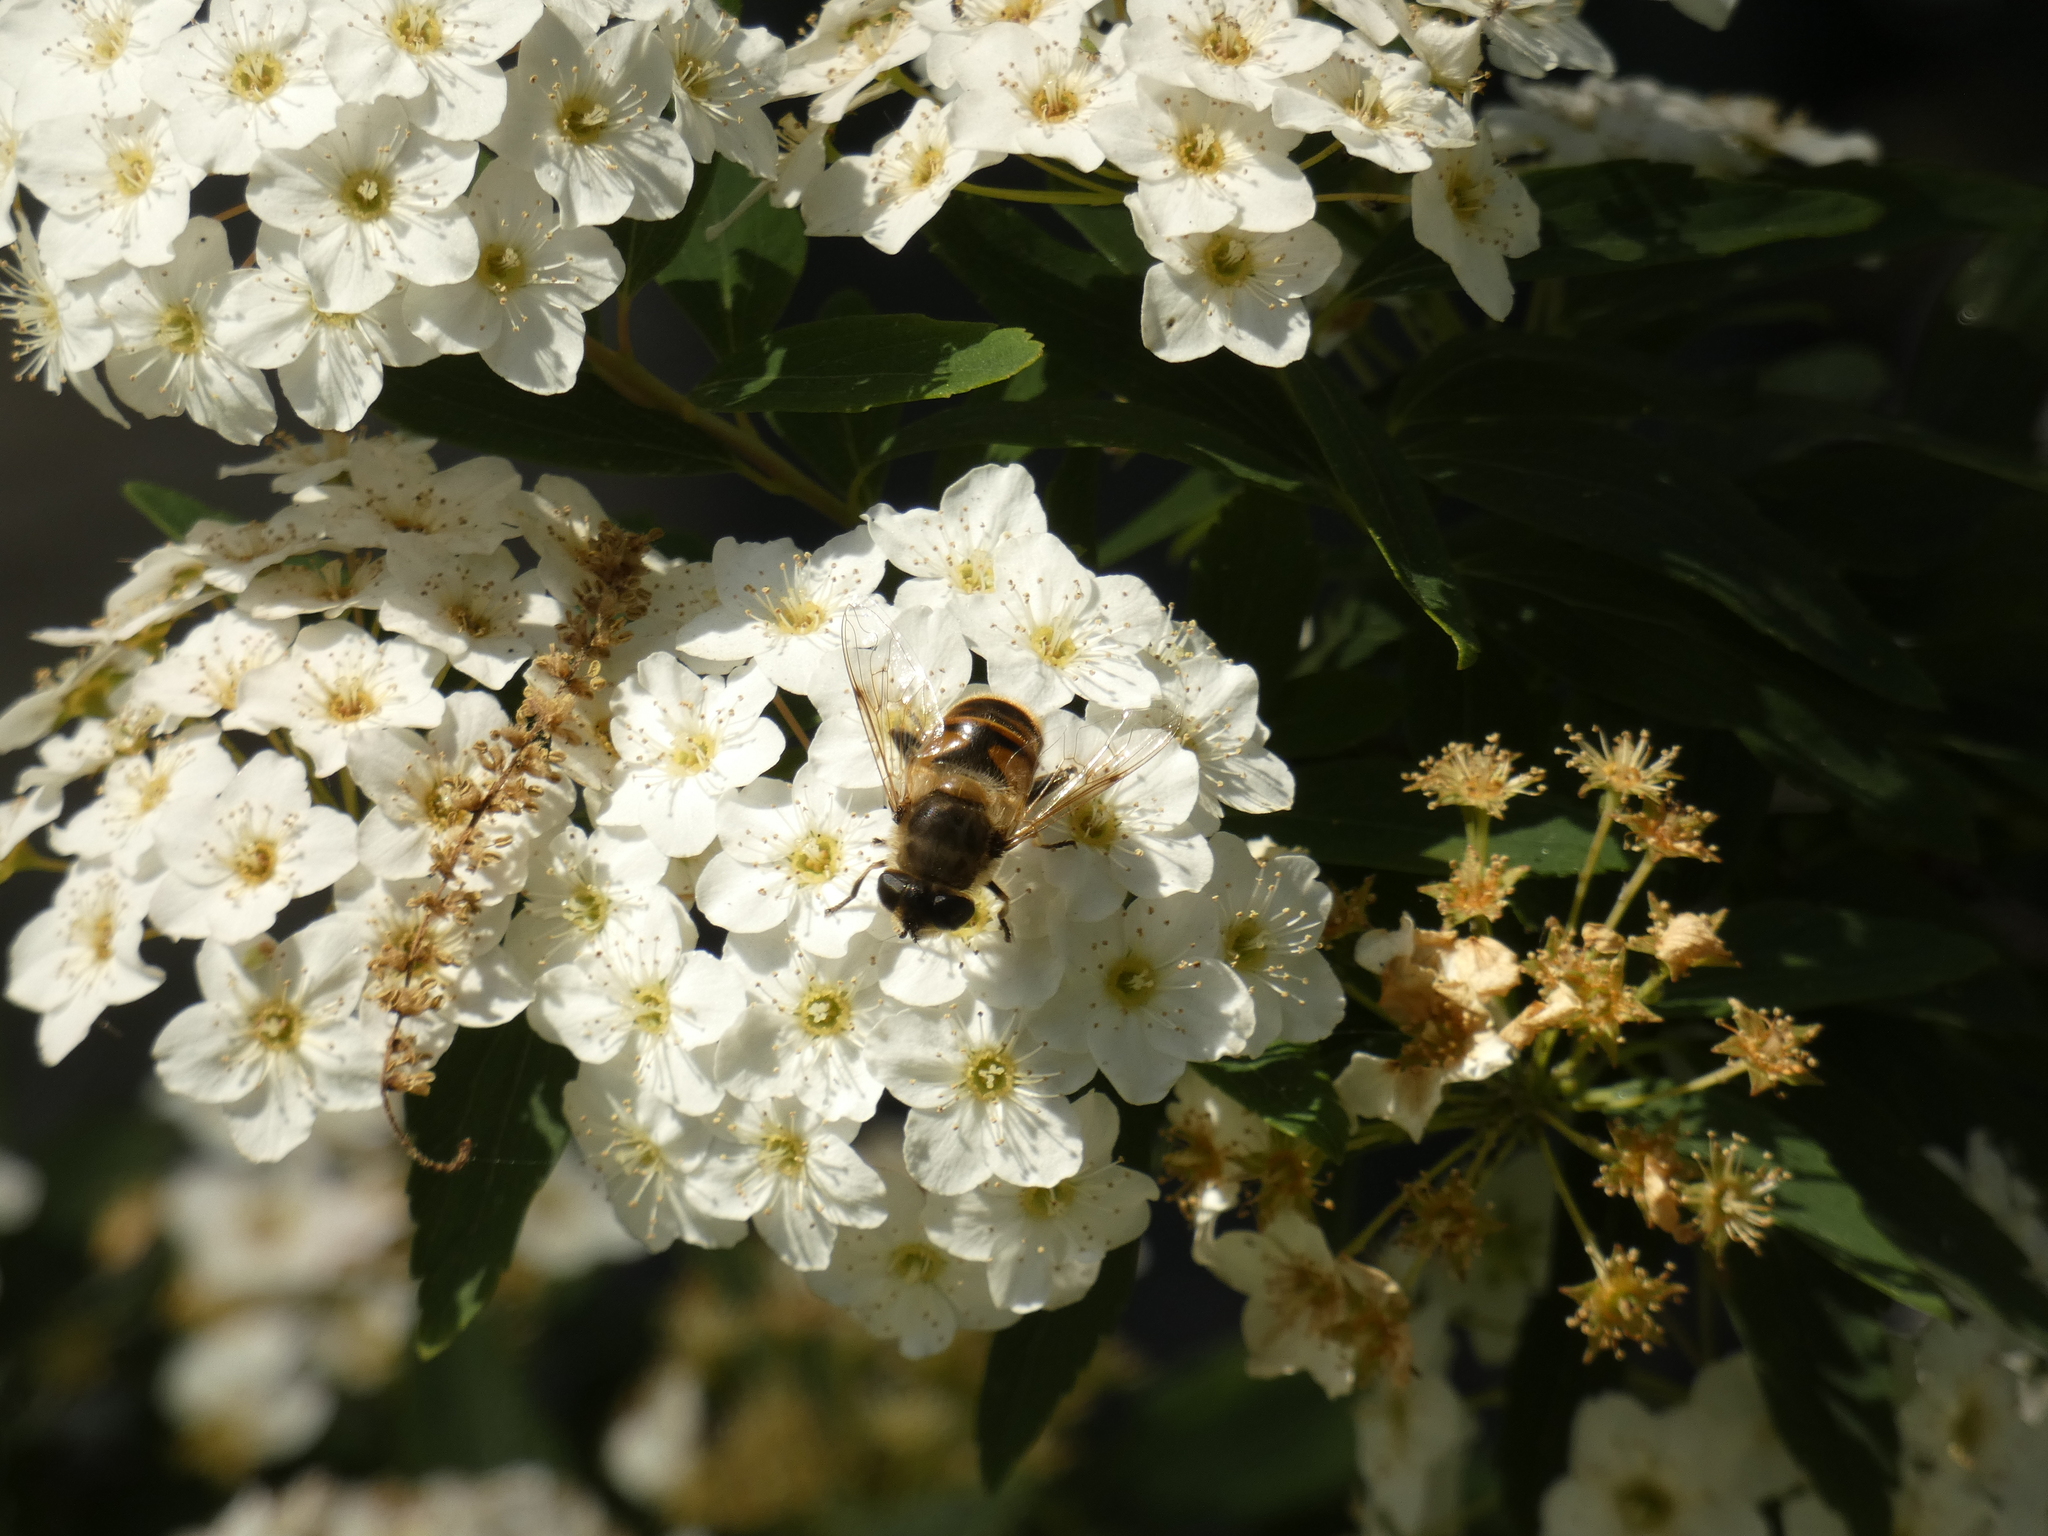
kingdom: Animalia
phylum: Arthropoda
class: Insecta
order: Diptera
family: Syrphidae
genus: Eristalis
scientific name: Eristalis tenax
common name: Drone fly
